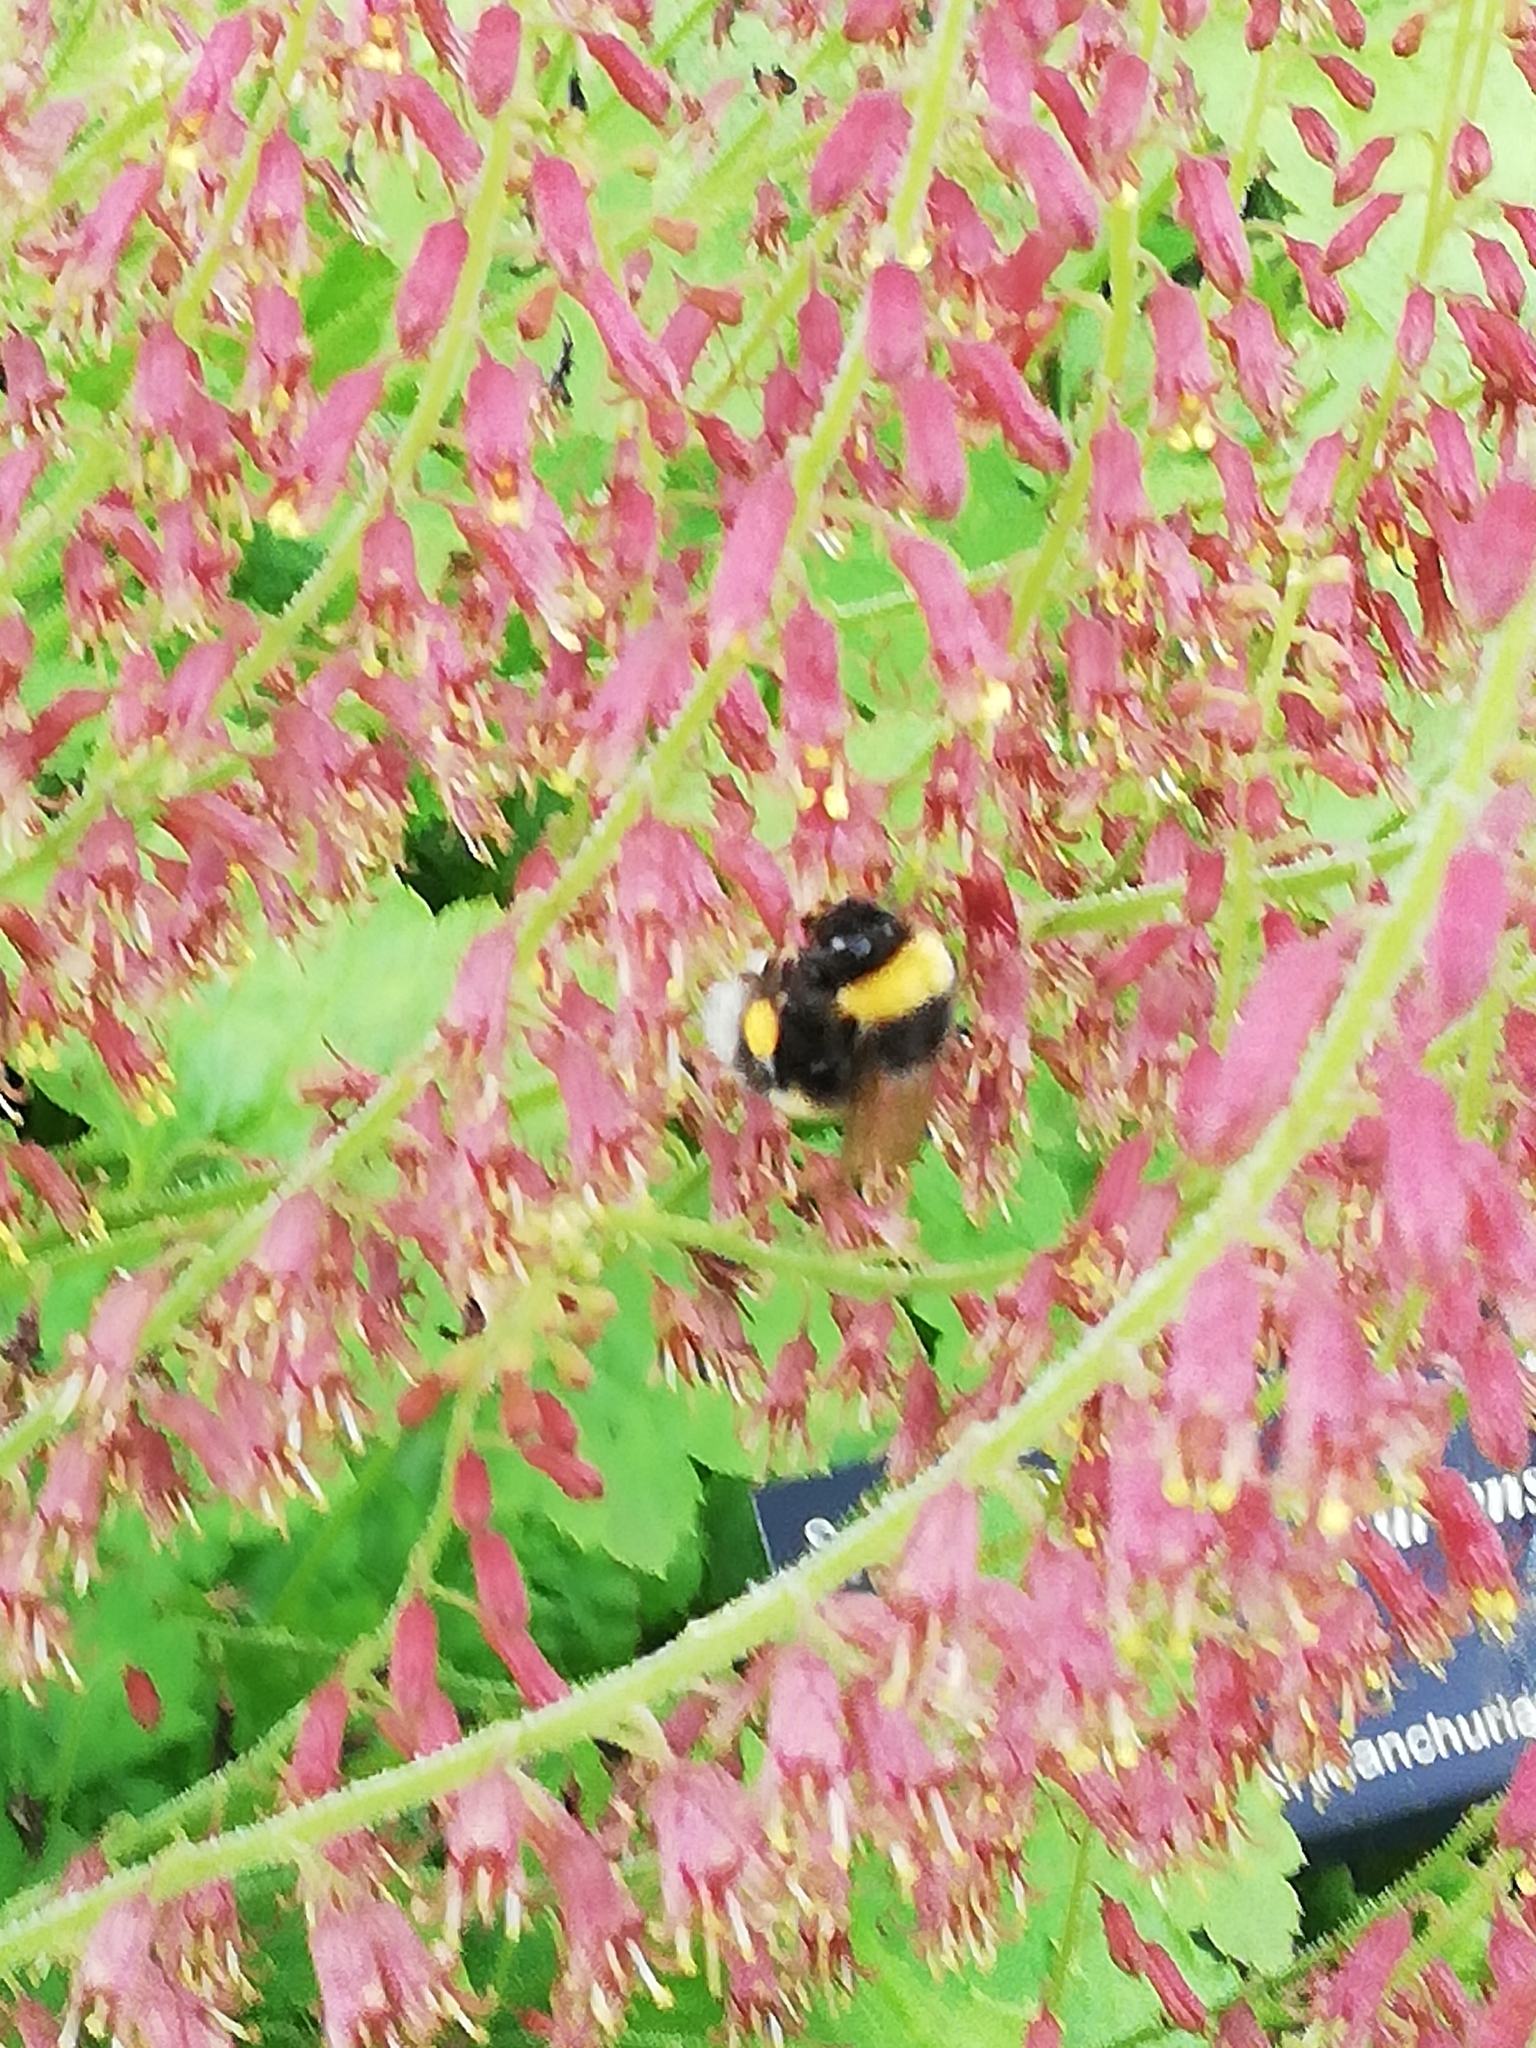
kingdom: Animalia
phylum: Arthropoda
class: Insecta
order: Hymenoptera
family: Apidae
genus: Bombus
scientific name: Bombus lucorum
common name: White-tailed bumblebee
